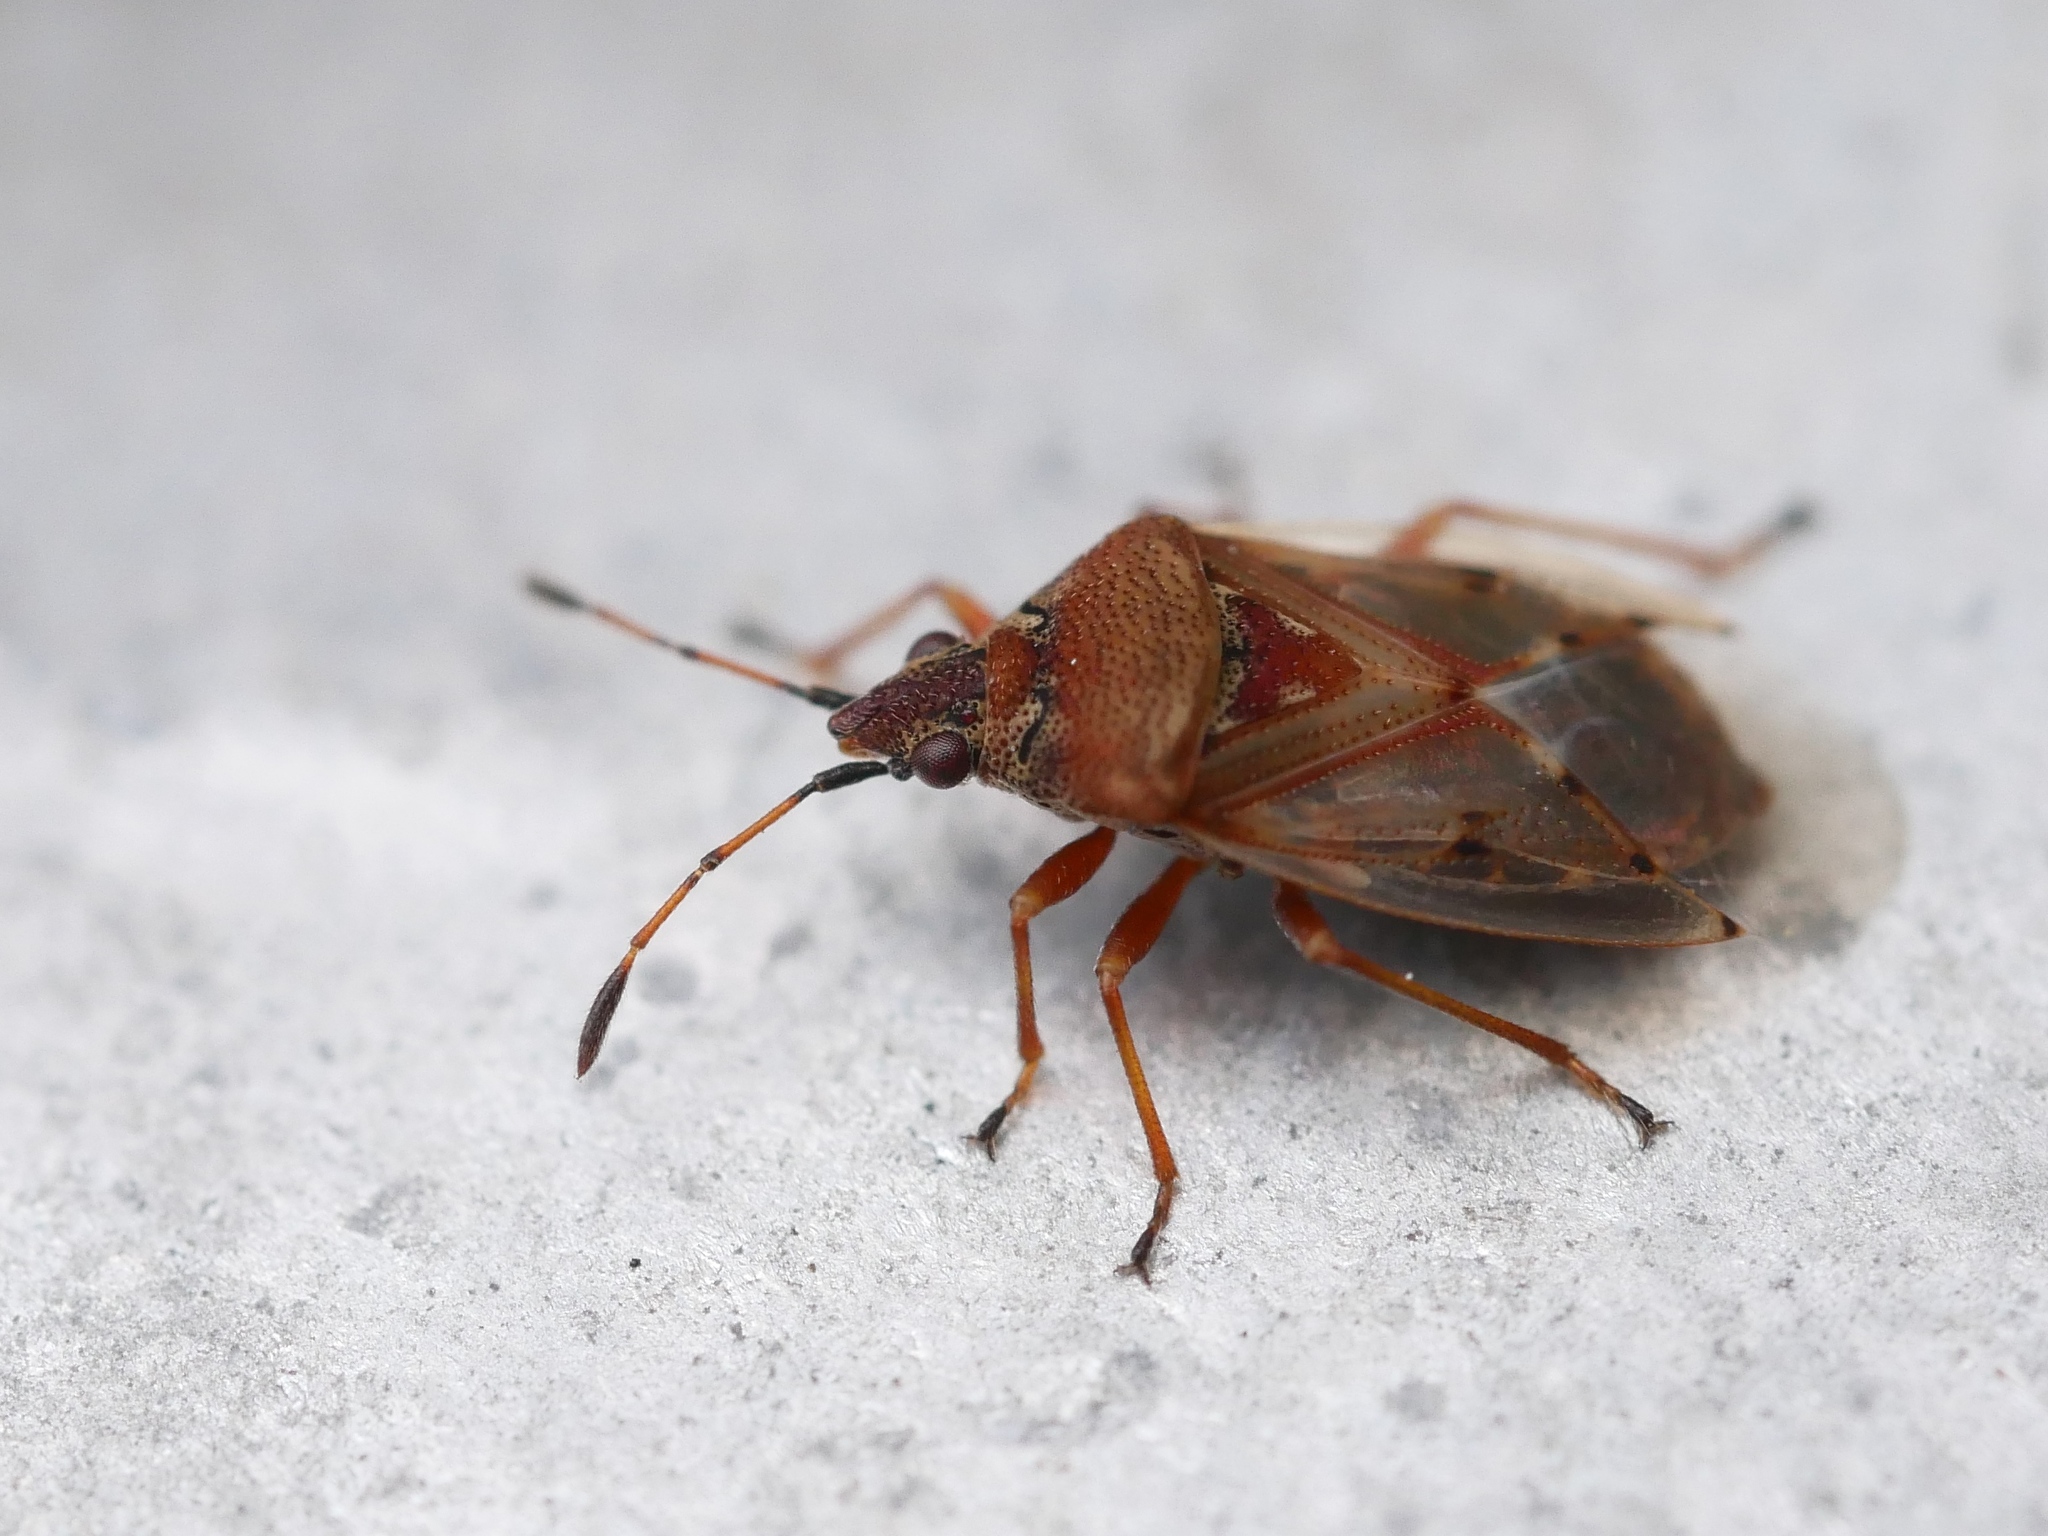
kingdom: Animalia
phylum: Arthropoda
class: Insecta
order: Hemiptera
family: Lygaeidae
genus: Kleidocerys
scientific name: Kleidocerys resedae
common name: Birch catkin bug
